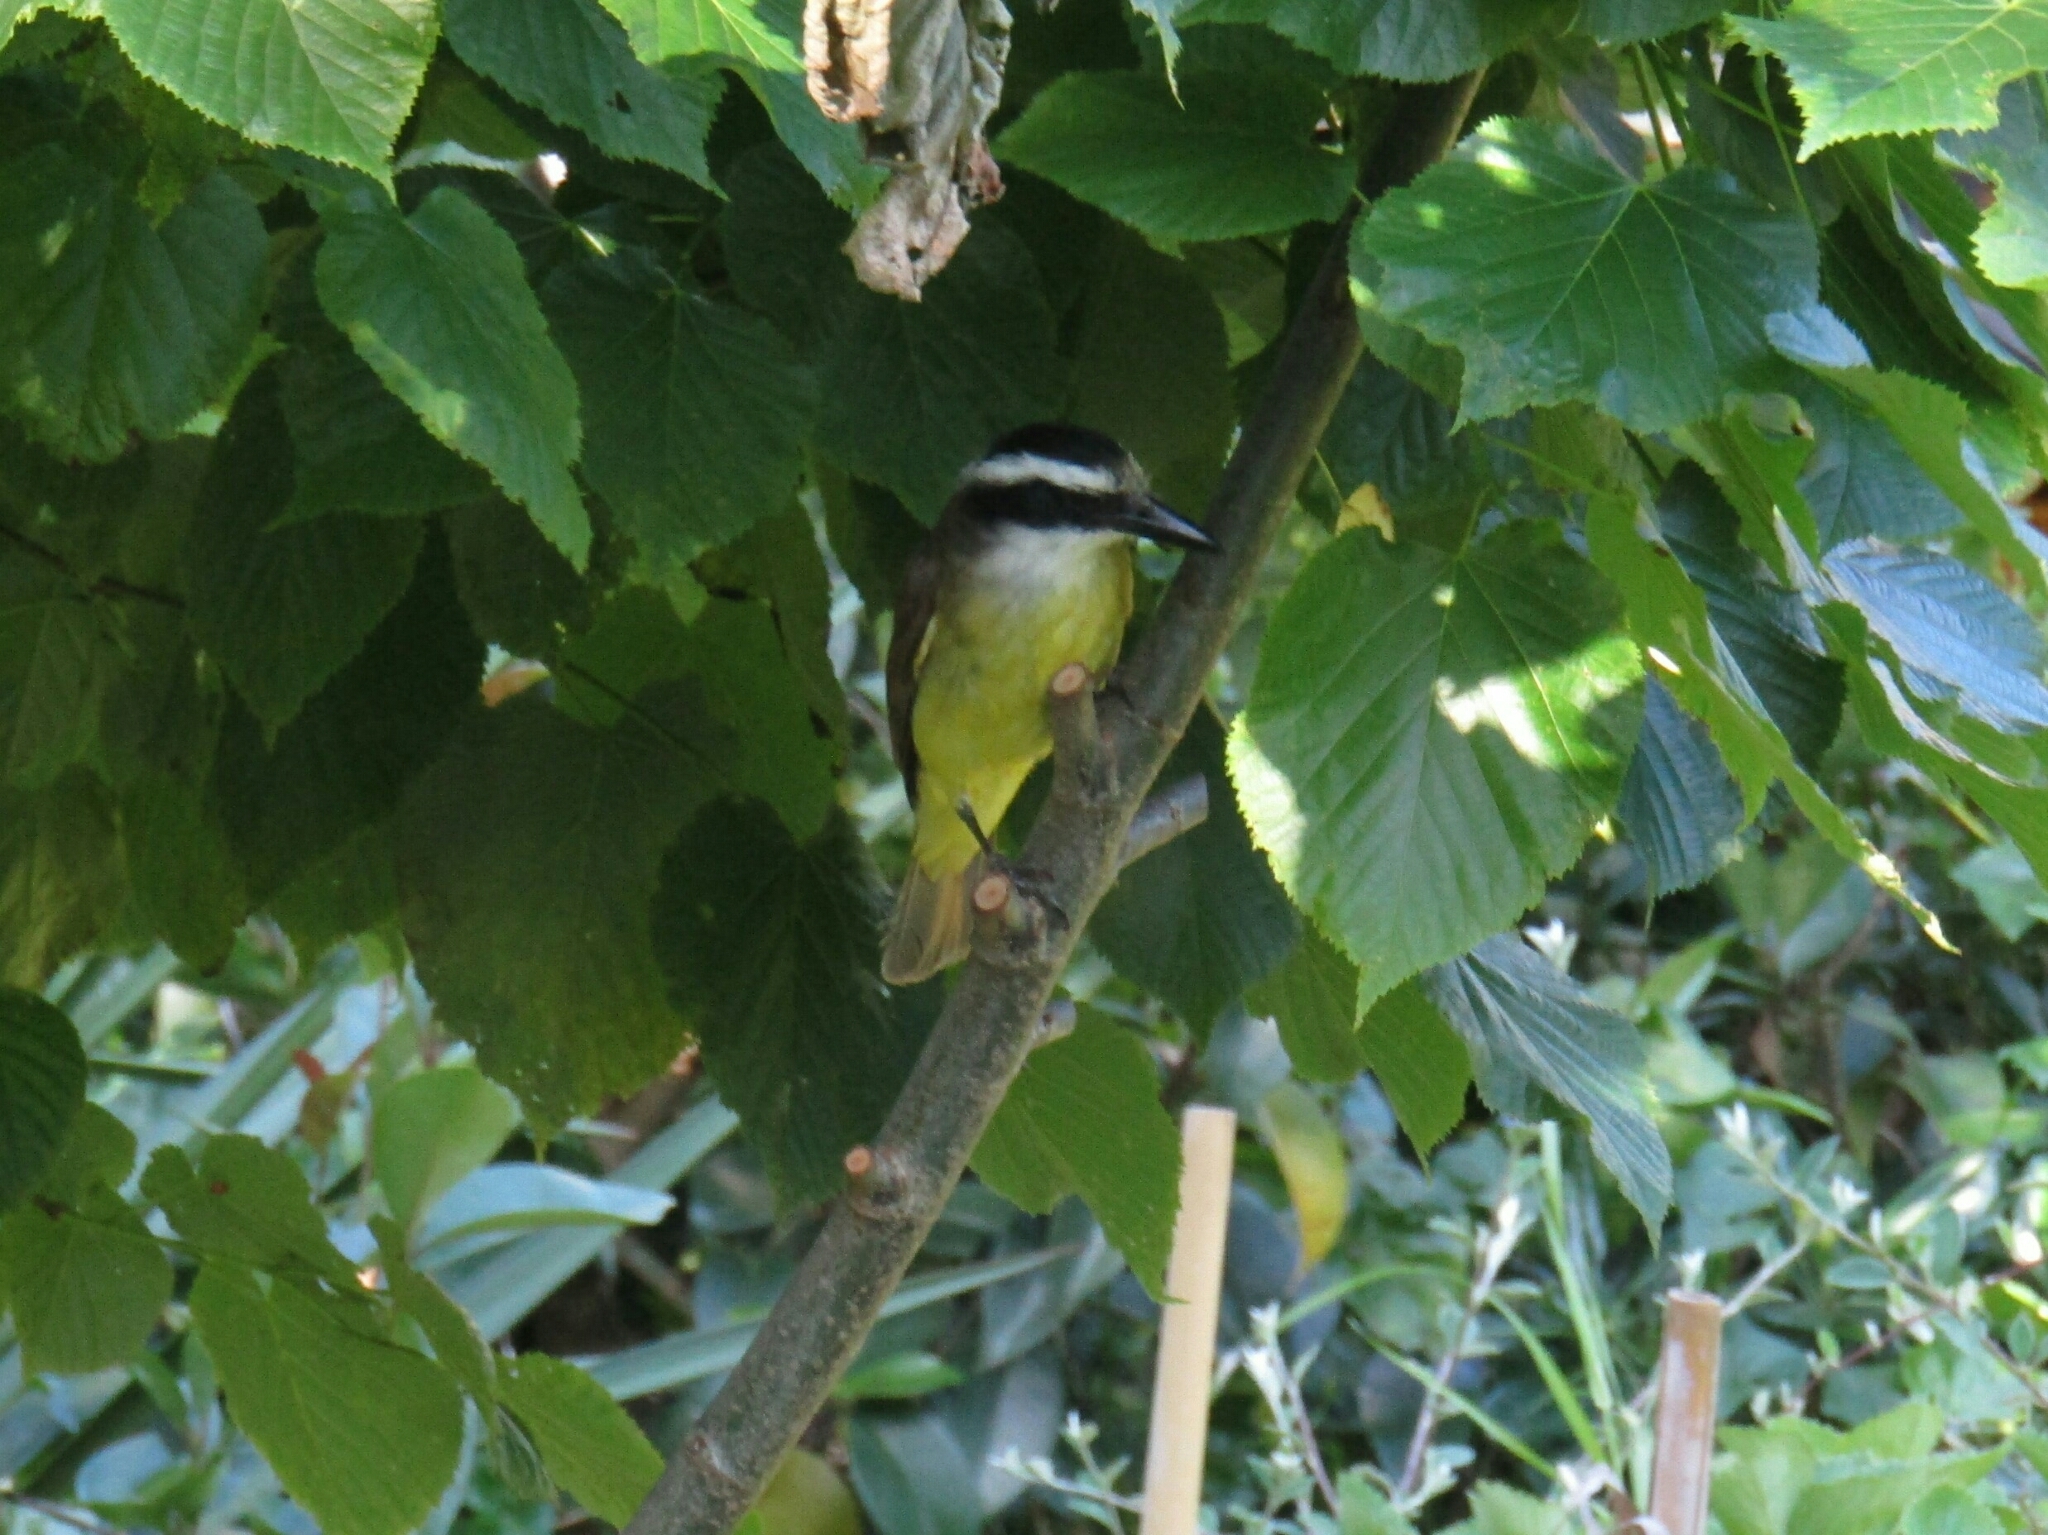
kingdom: Animalia
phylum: Chordata
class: Aves
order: Passeriformes
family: Tyrannidae
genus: Pitangus
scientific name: Pitangus sulphuratus
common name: Great kiskadee
